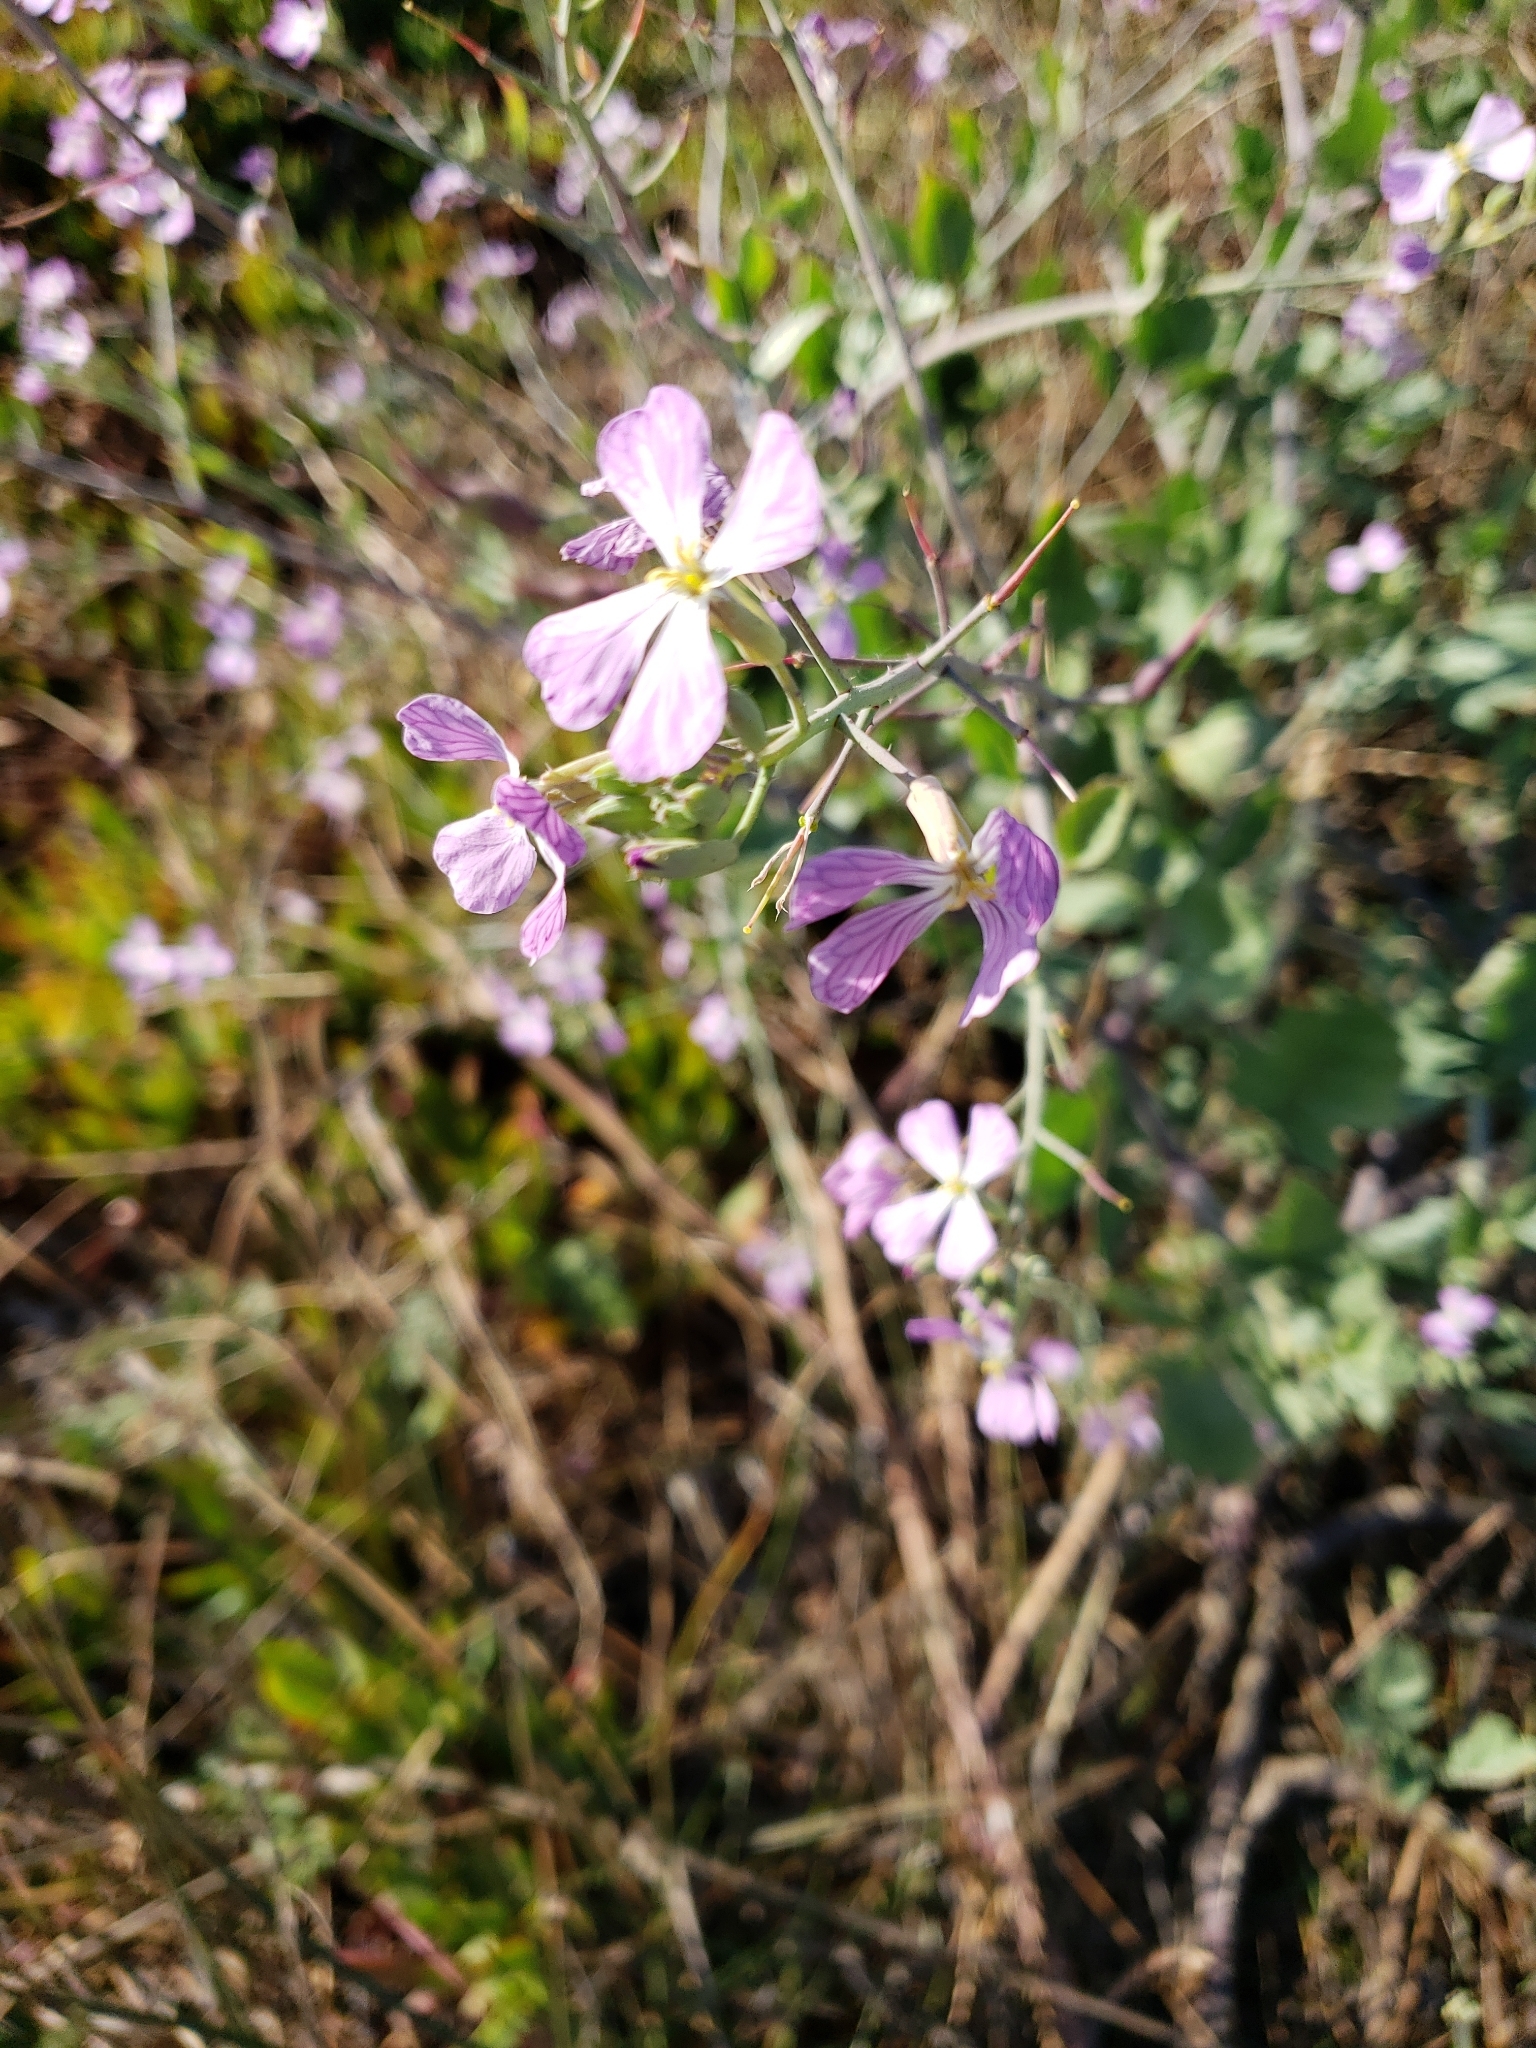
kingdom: Plantae
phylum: Tracheophyta
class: Magnoliopsida
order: Brassicales
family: Brassicaceae
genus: Raphanus
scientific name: Raphanus sativus
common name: Cultivated radish
